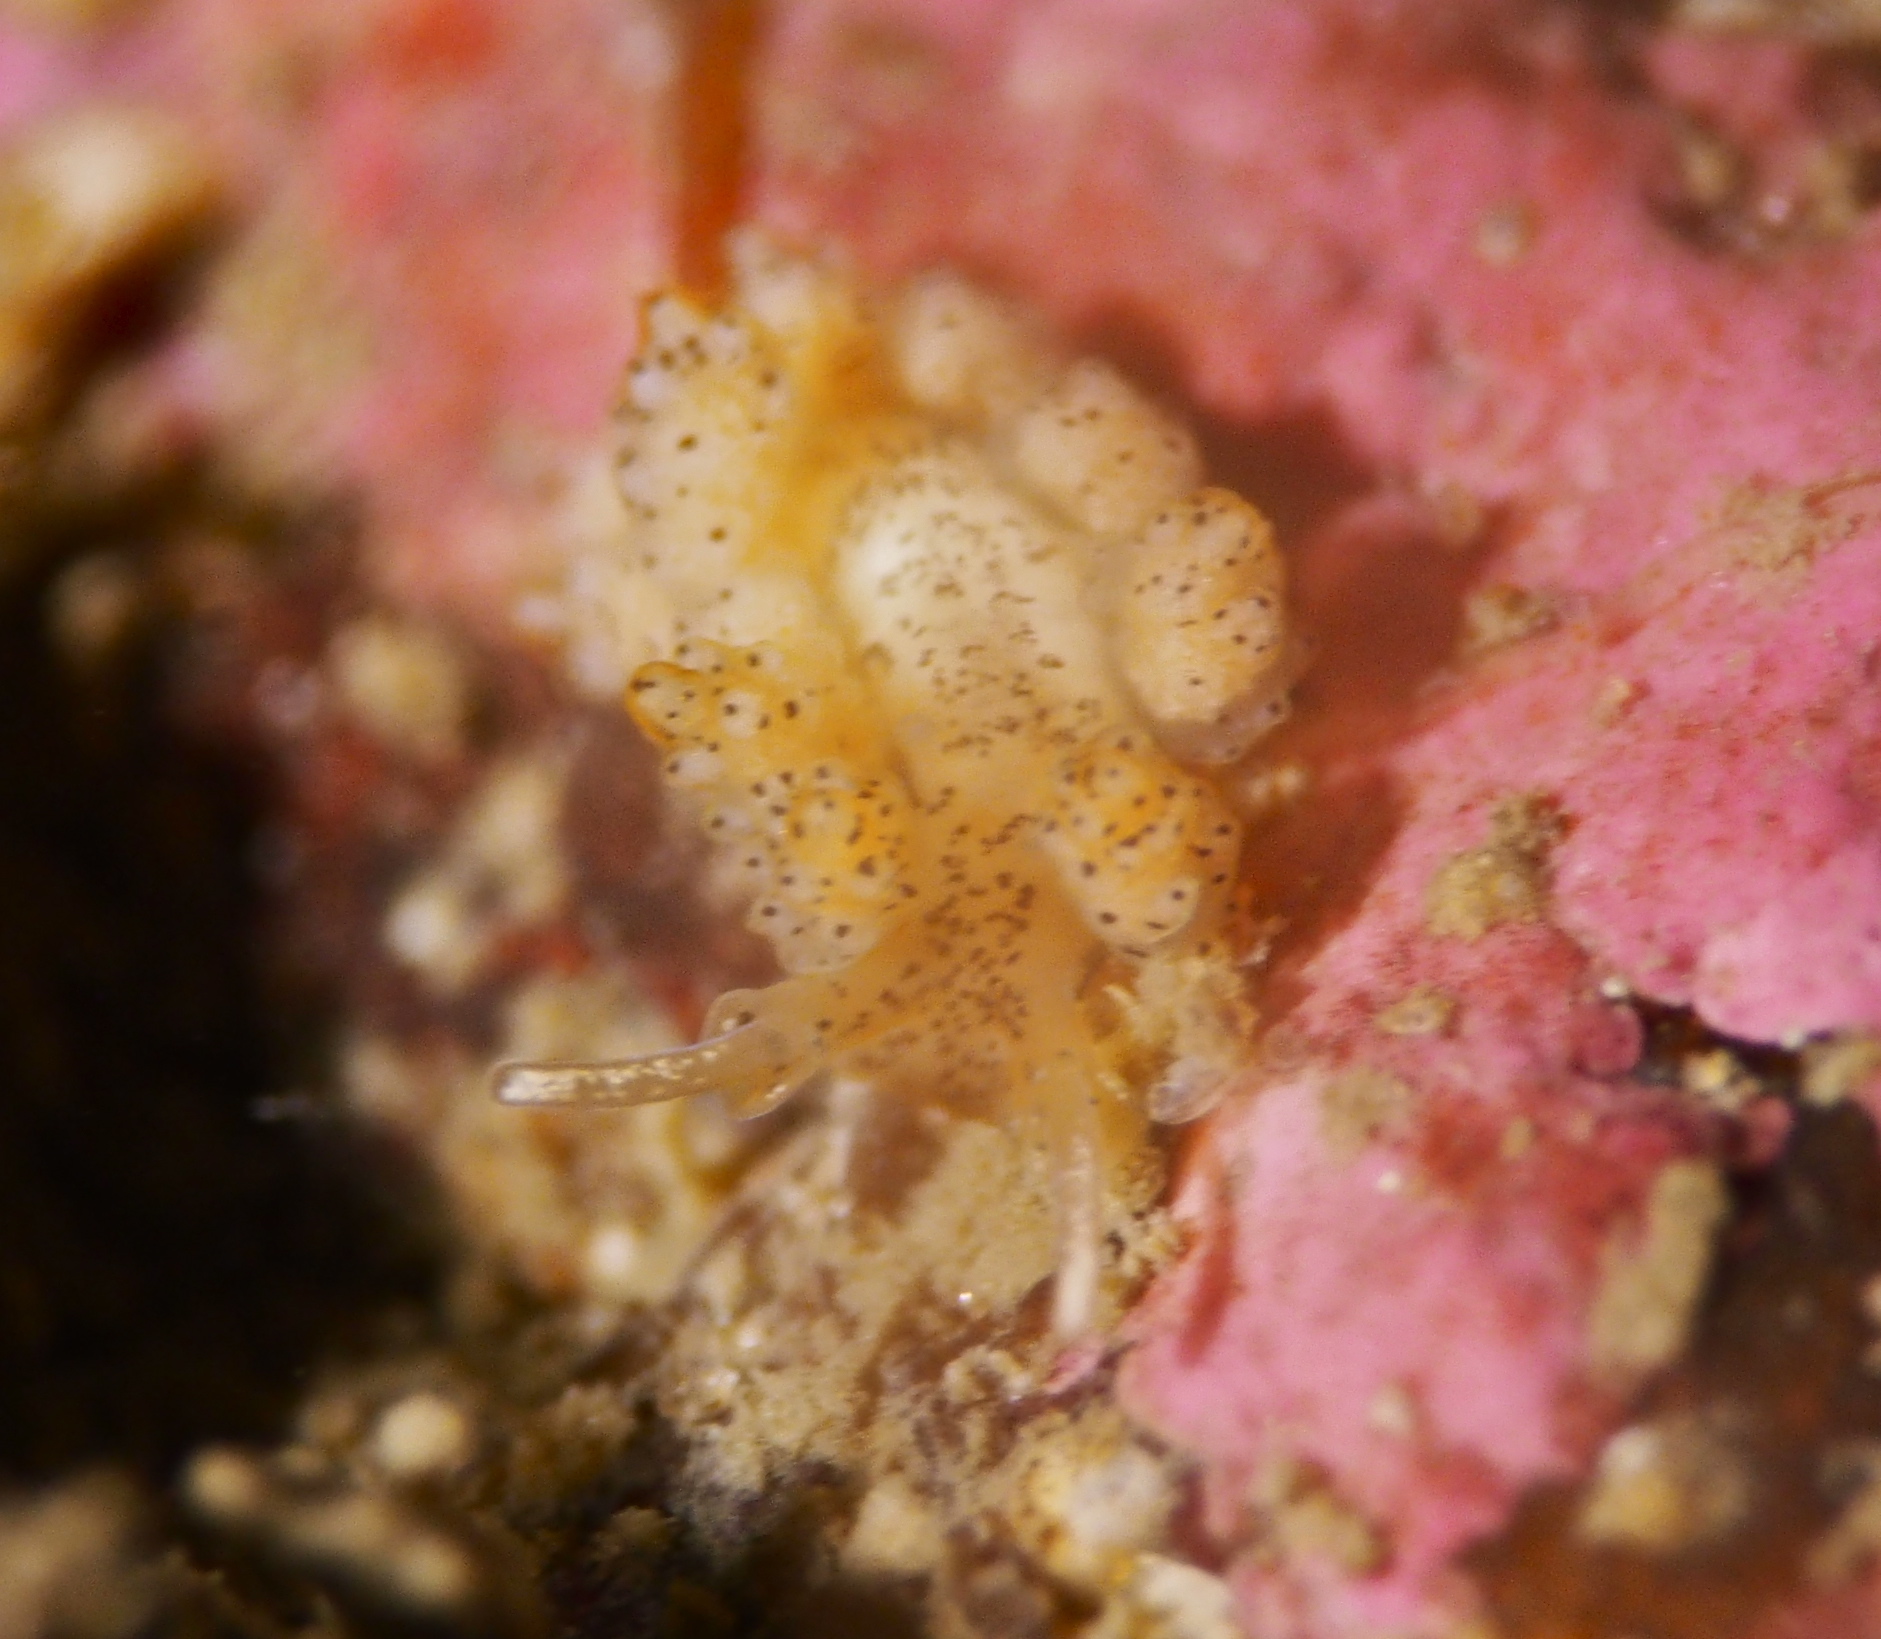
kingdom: Animalia
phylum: Mollusca
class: Gastropoda
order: Nudibranchia
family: Dotidae
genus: Doto
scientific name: Doto dunnei
